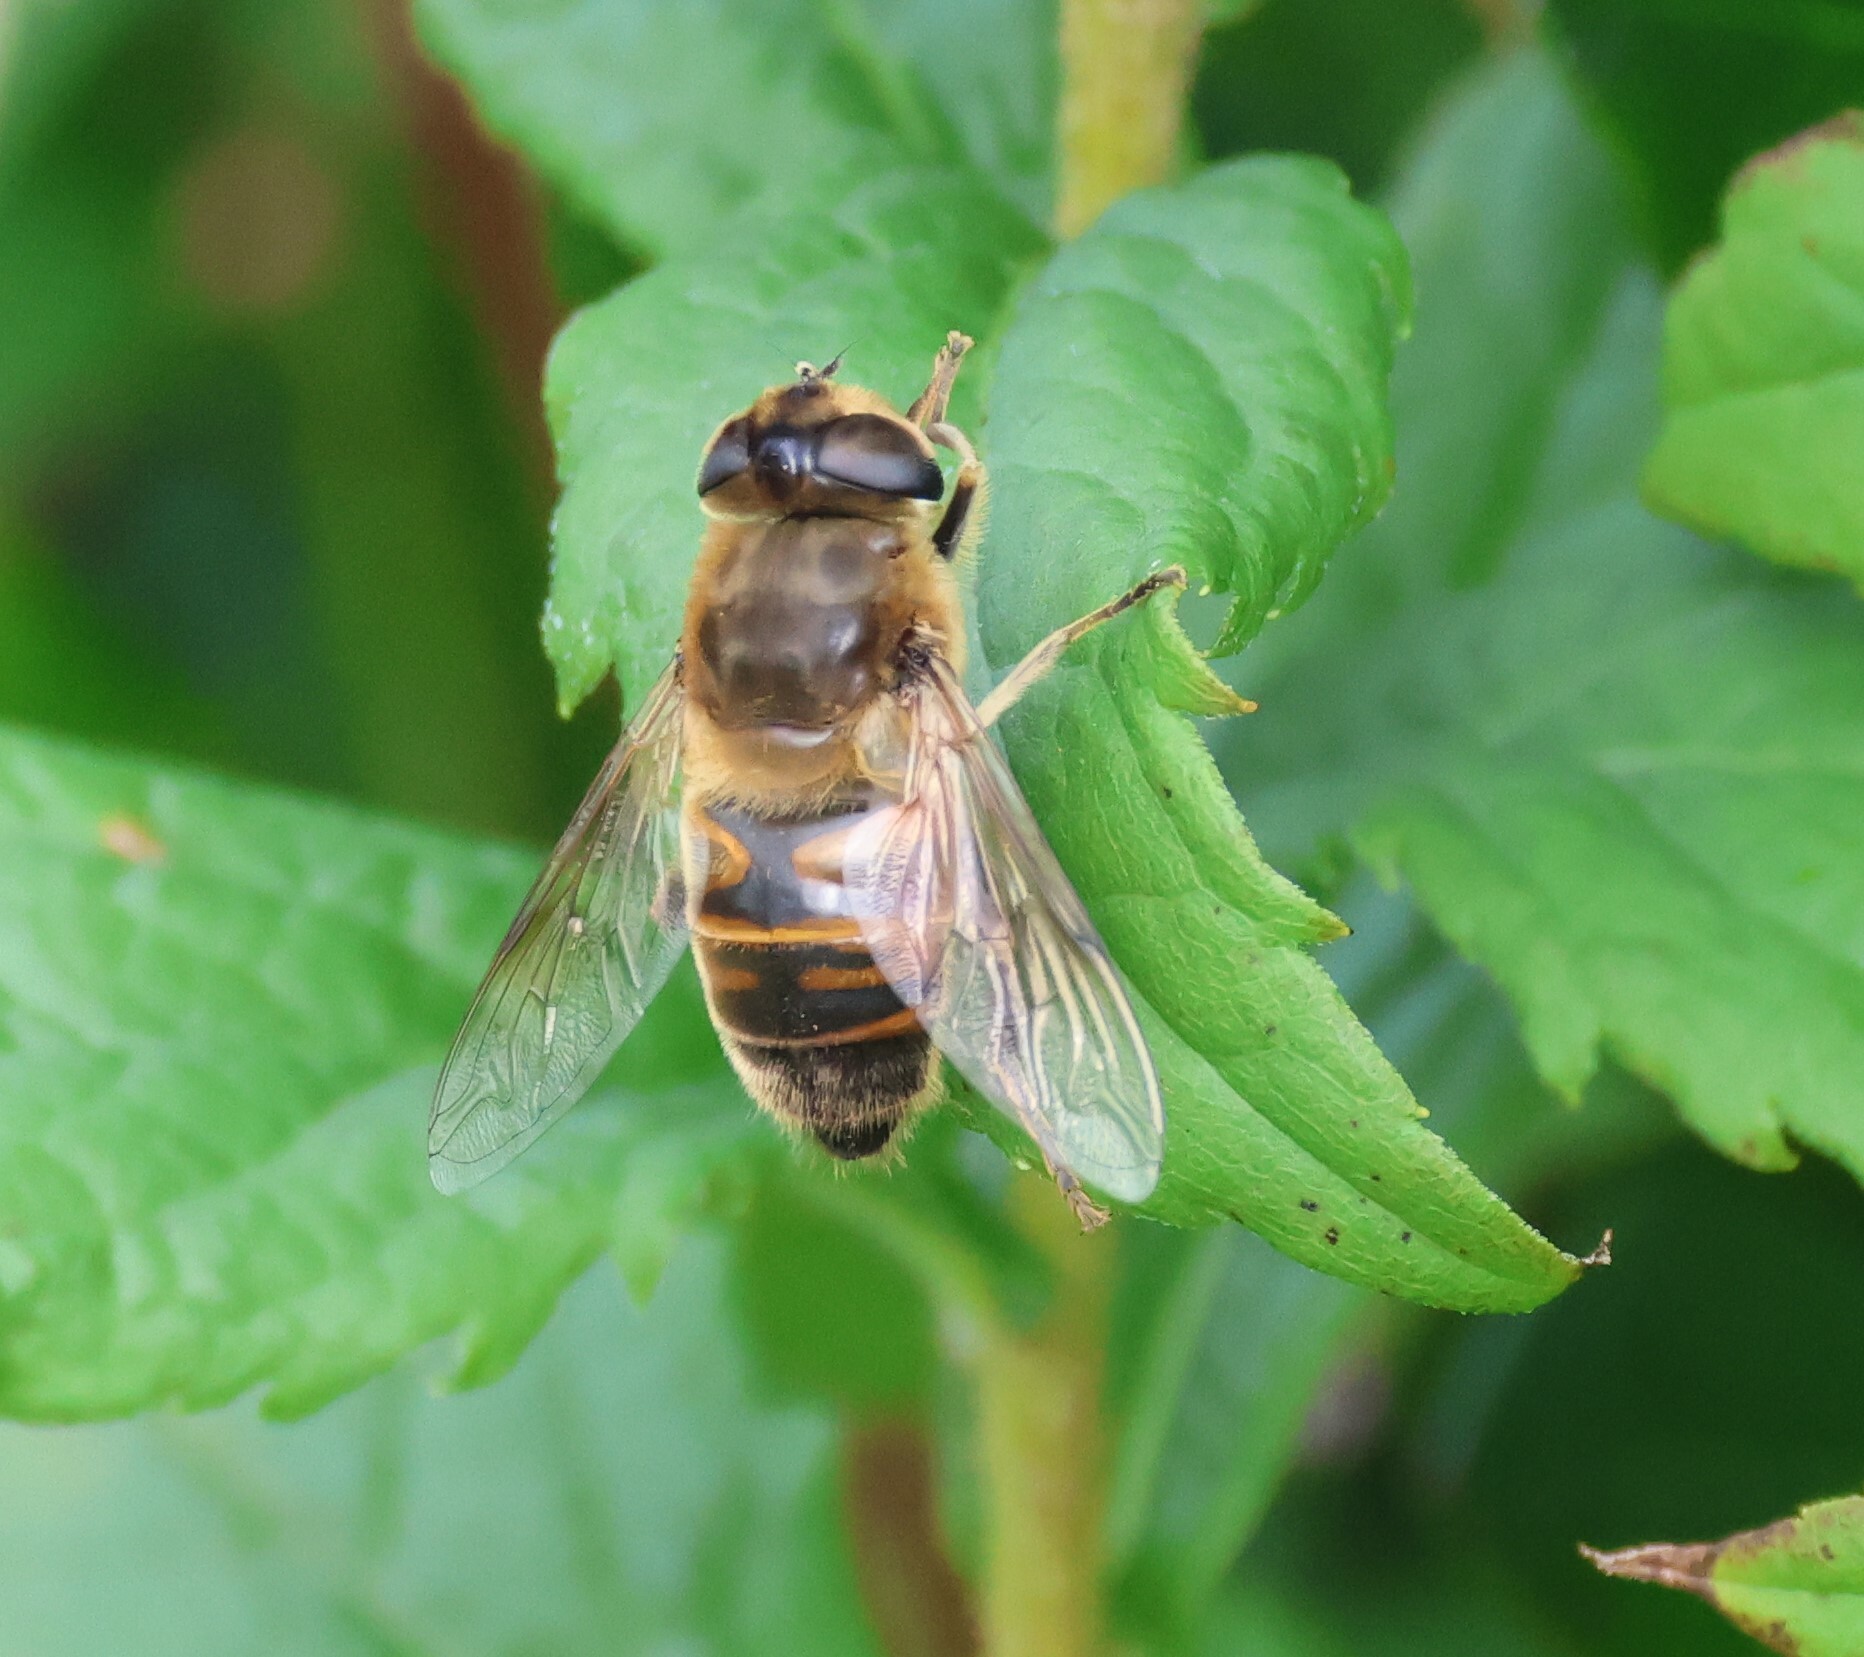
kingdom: Animalia
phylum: Arthropoda
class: Insecta
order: Diptera
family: Syrphidae
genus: Eristalis
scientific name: Eristalis tenax
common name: Drone fly
